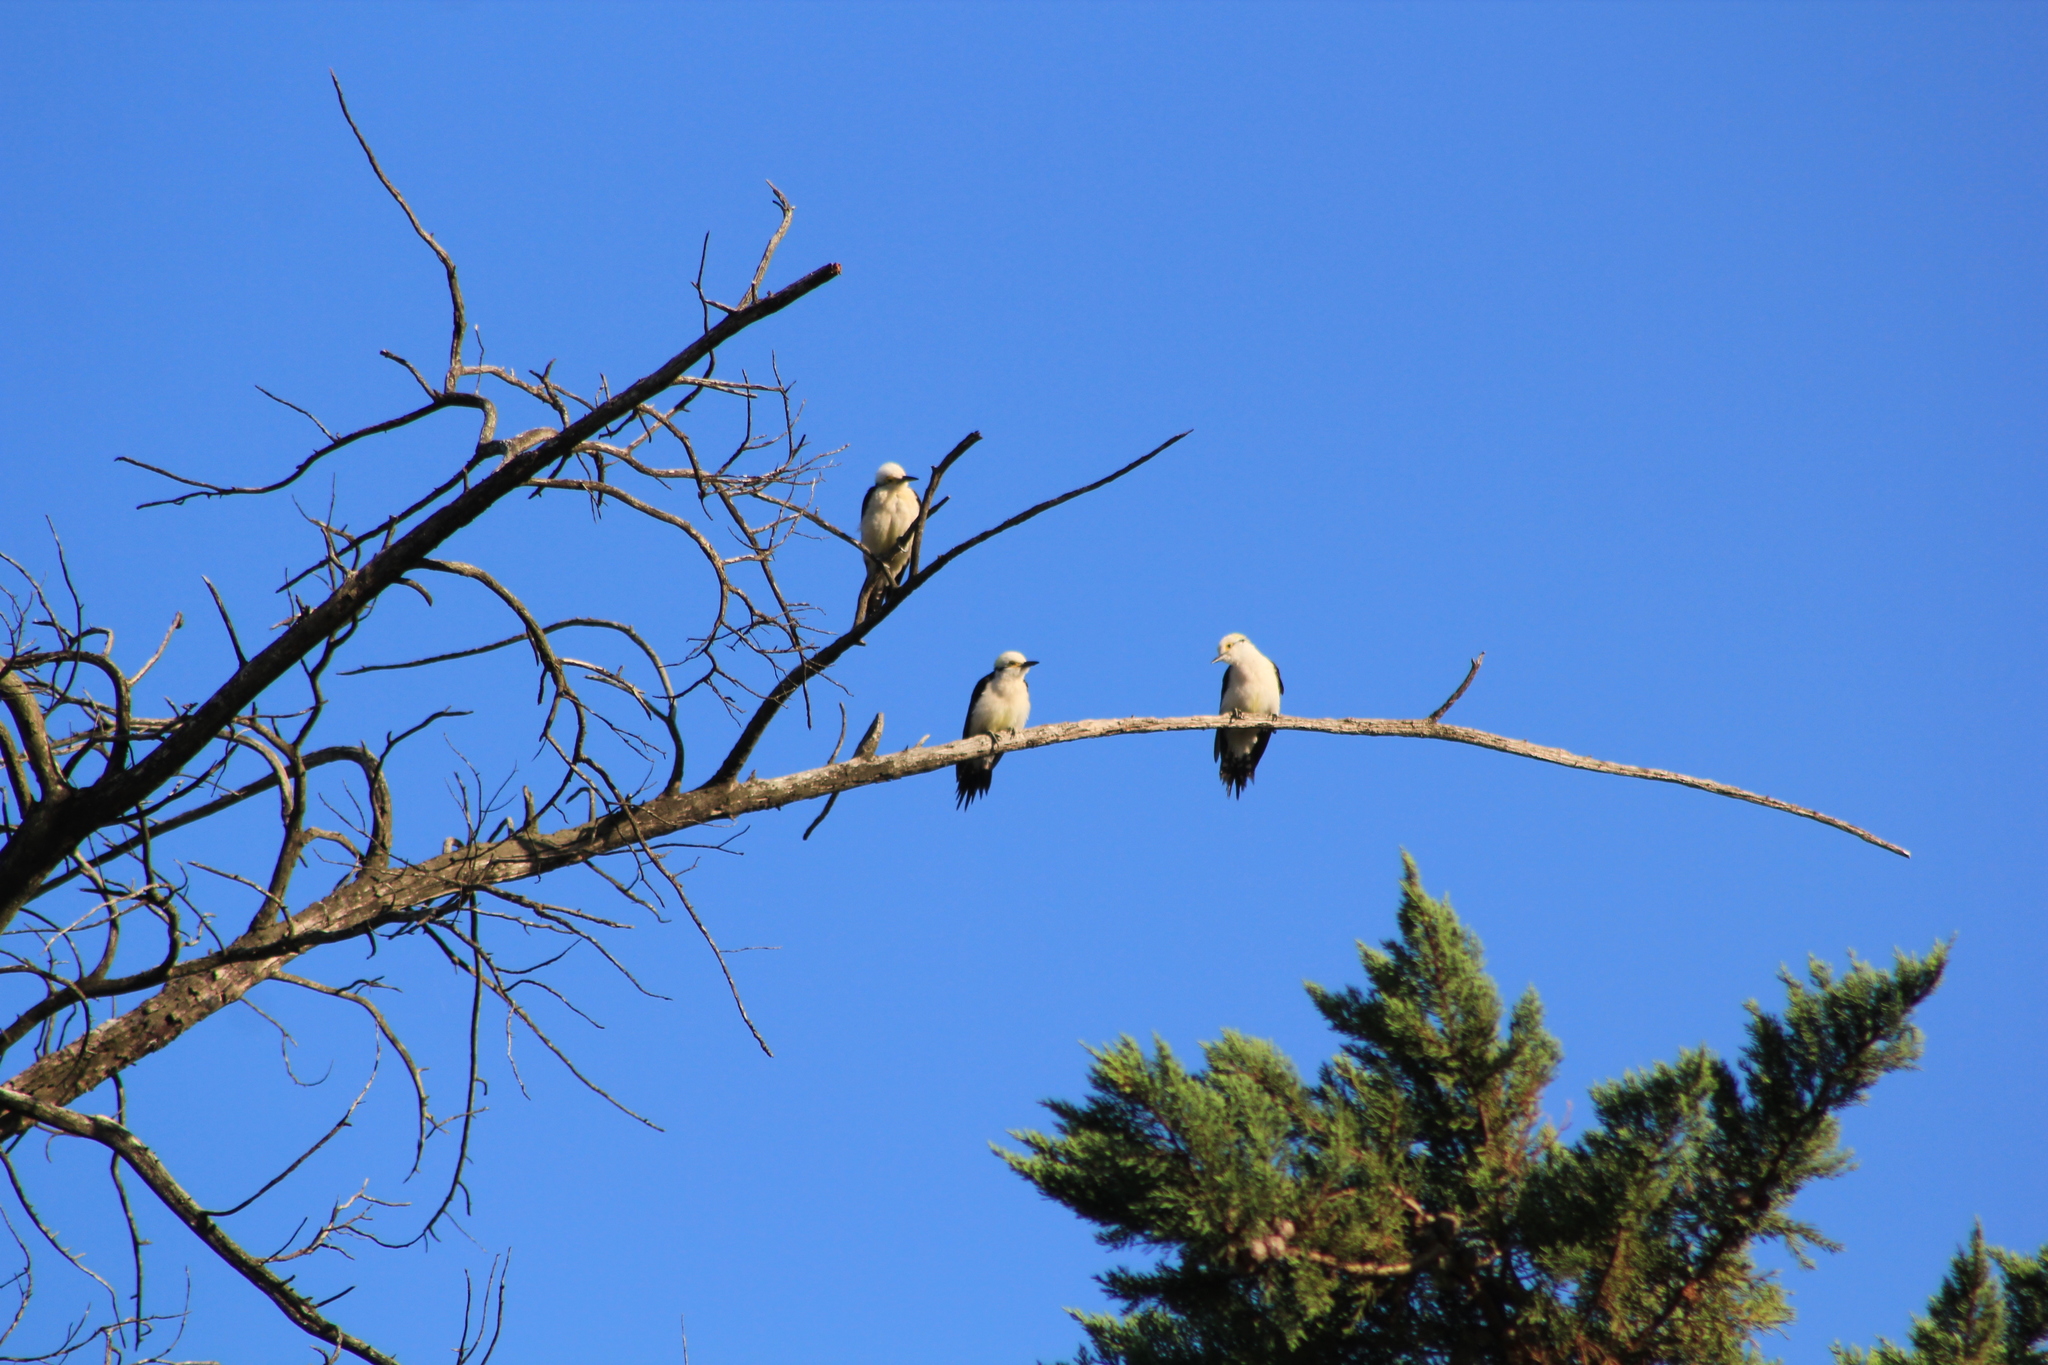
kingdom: Animalia
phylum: Chordata
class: Aves
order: Piciformes
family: Picidae
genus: Melanerpes
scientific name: Melanerpes candidus
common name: White woodpecker
